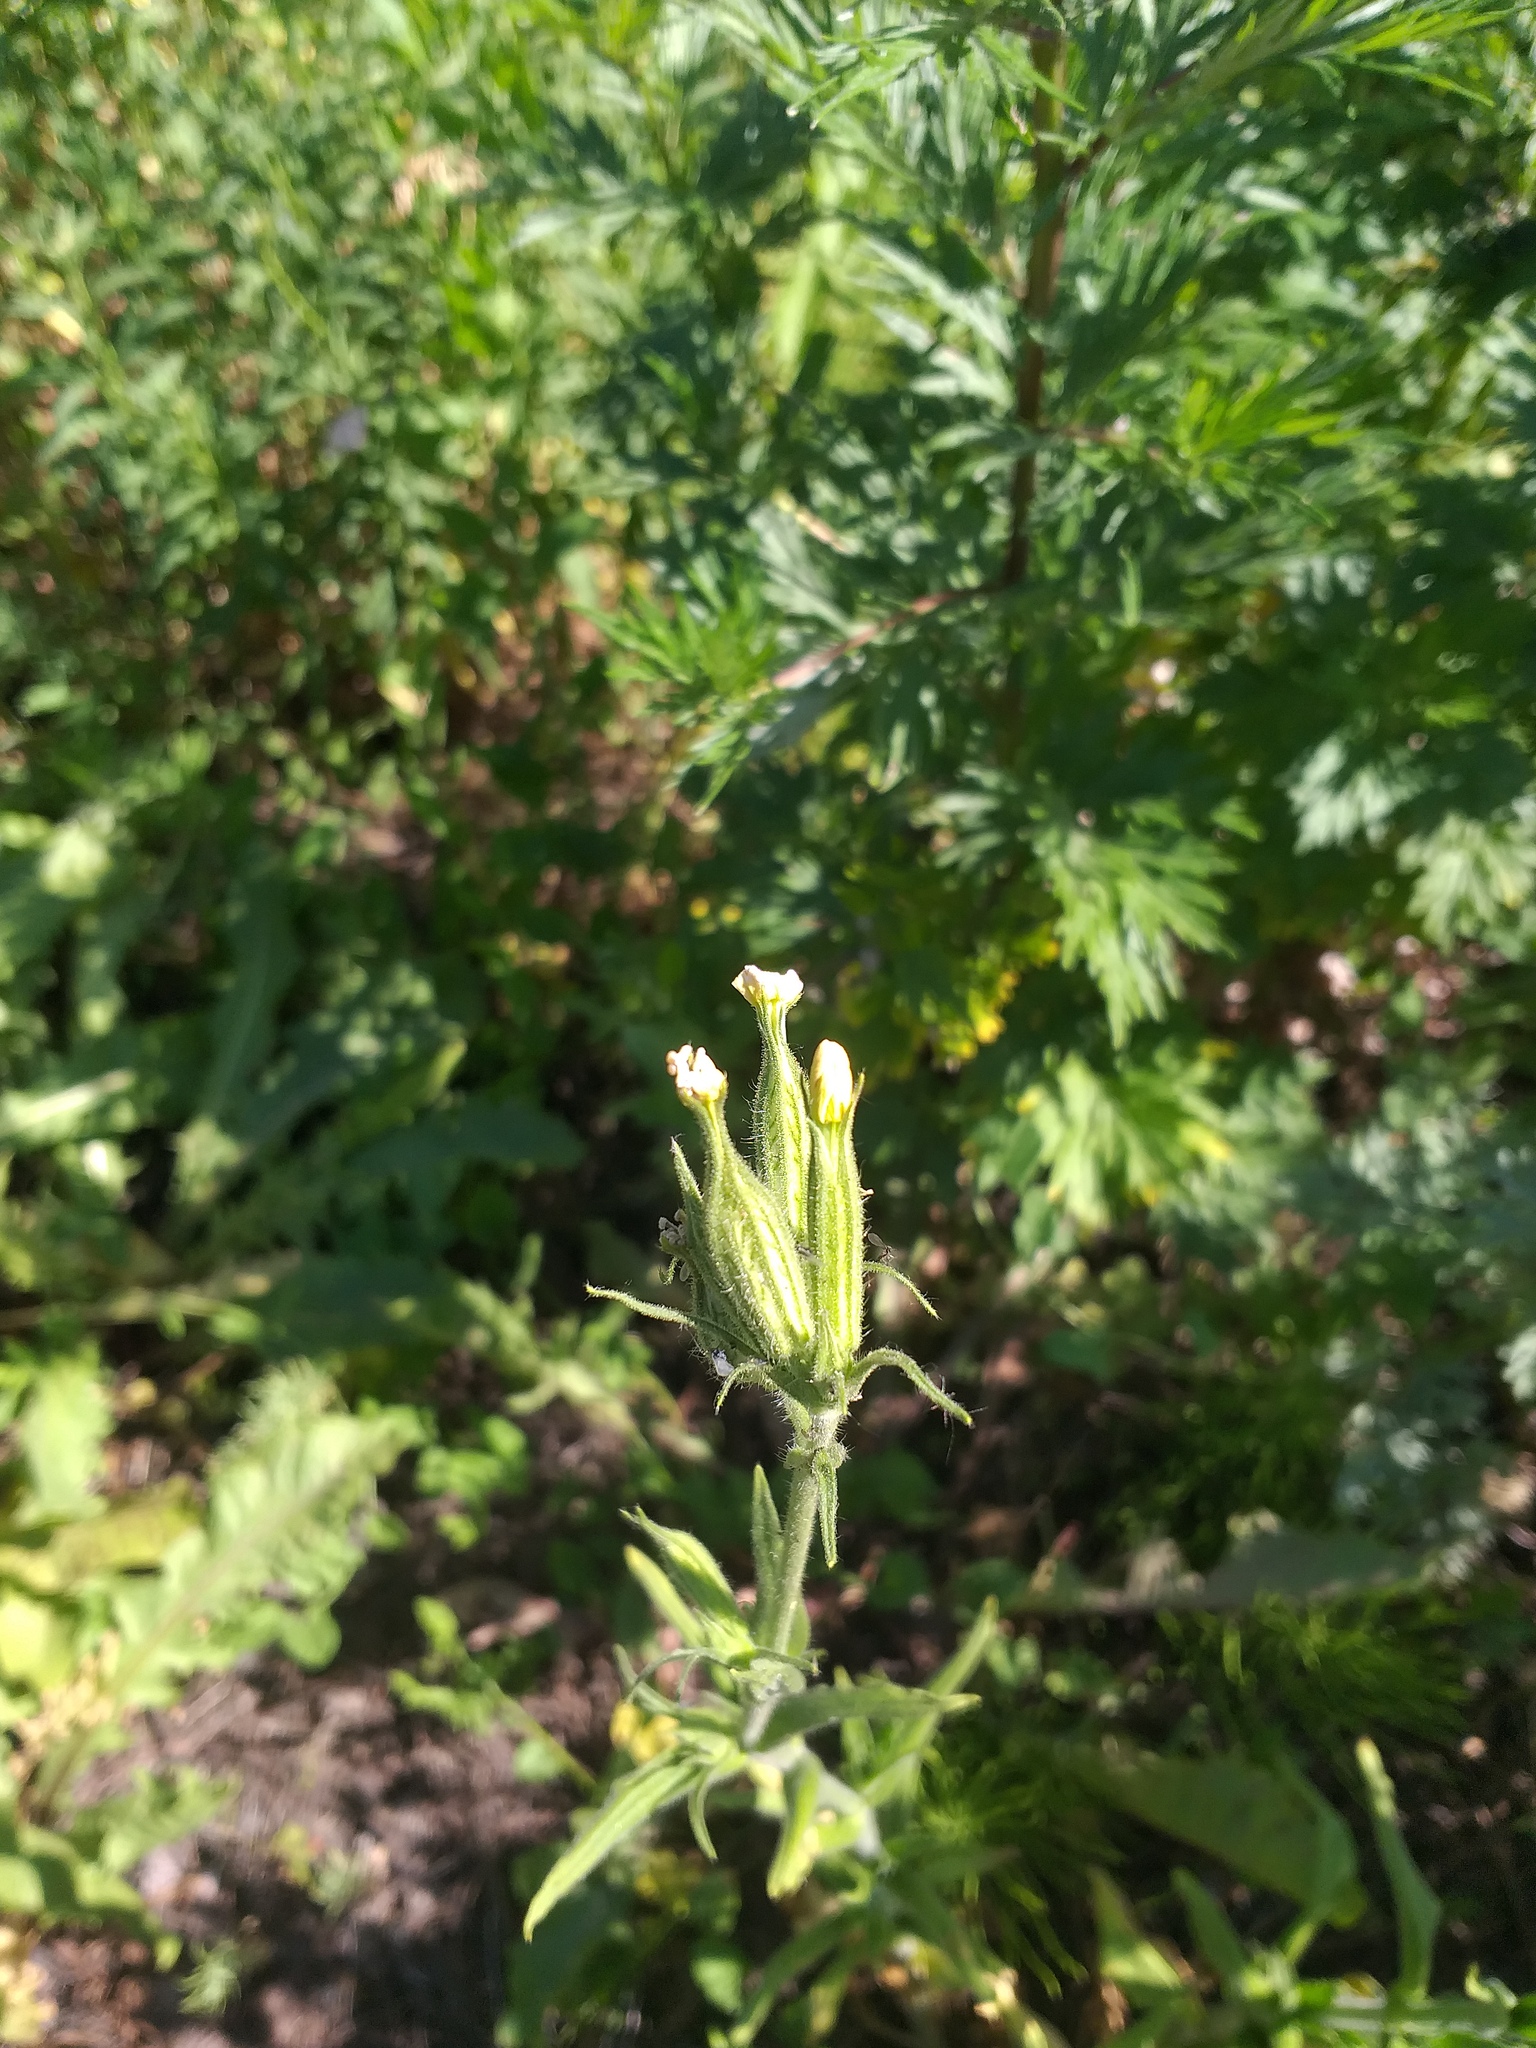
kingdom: Plantae
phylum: Tracheophyta
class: Magnoliopsida
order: Caryophyllales
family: Caryophyllaceae
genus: Silene
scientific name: Silene noctiflora
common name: Night-flowering catchfly
